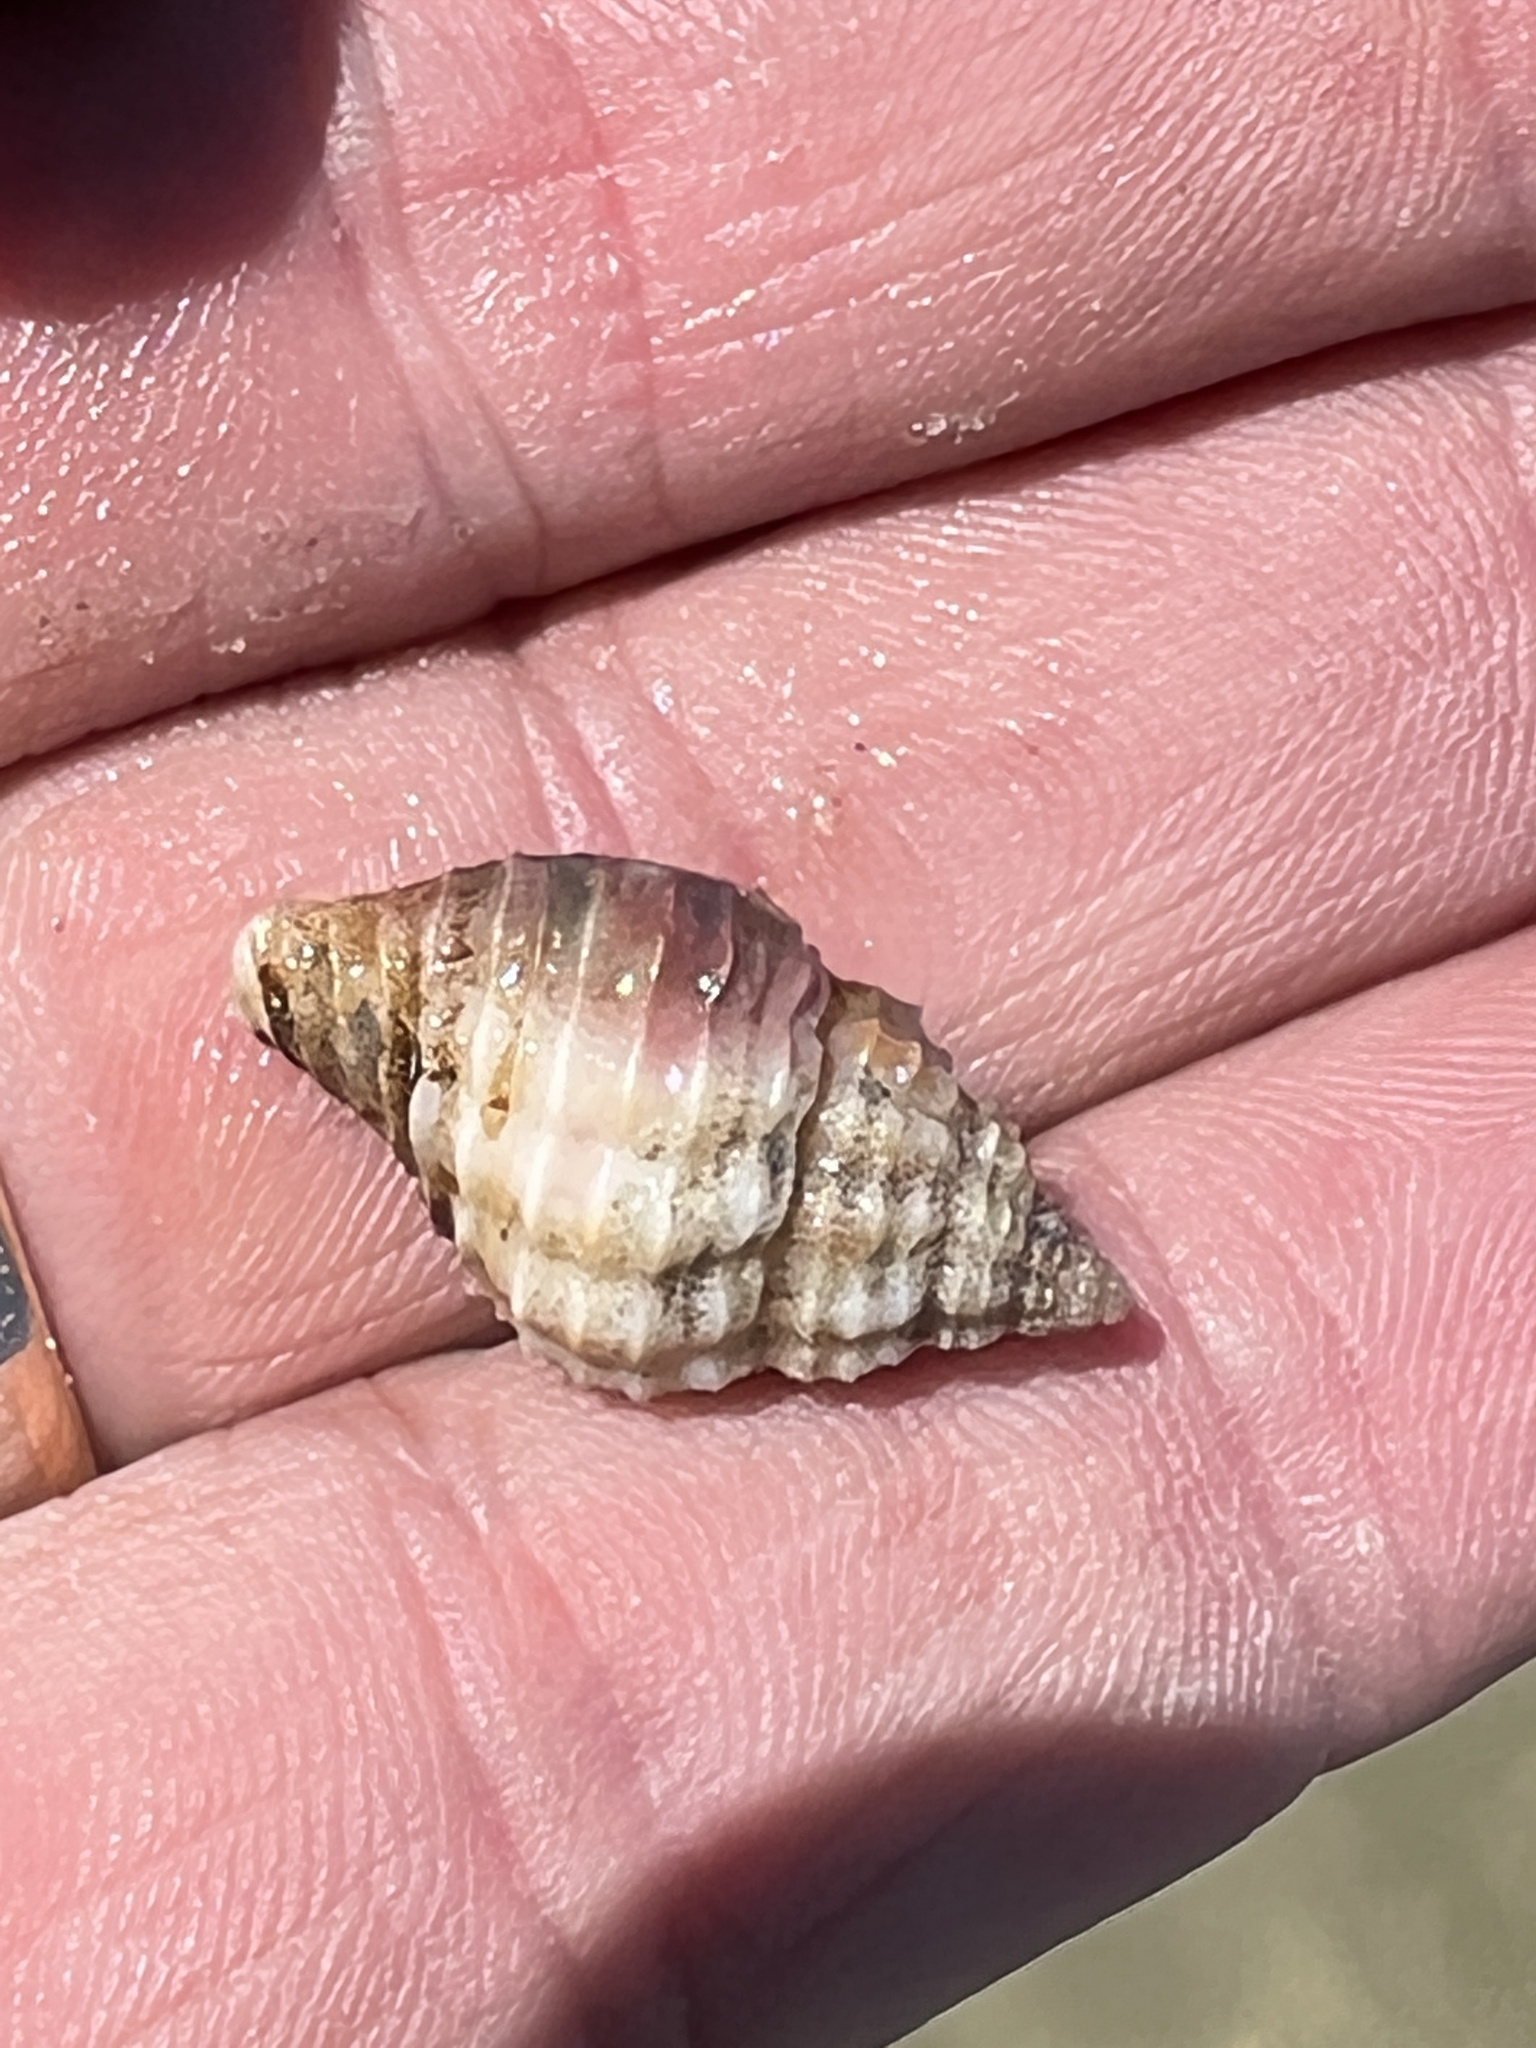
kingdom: Animalia
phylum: Mollusca
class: Gastropoda
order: Neogastropoda
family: Pisaniidae
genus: Solenosteira
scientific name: Solenosteira cancellaria
